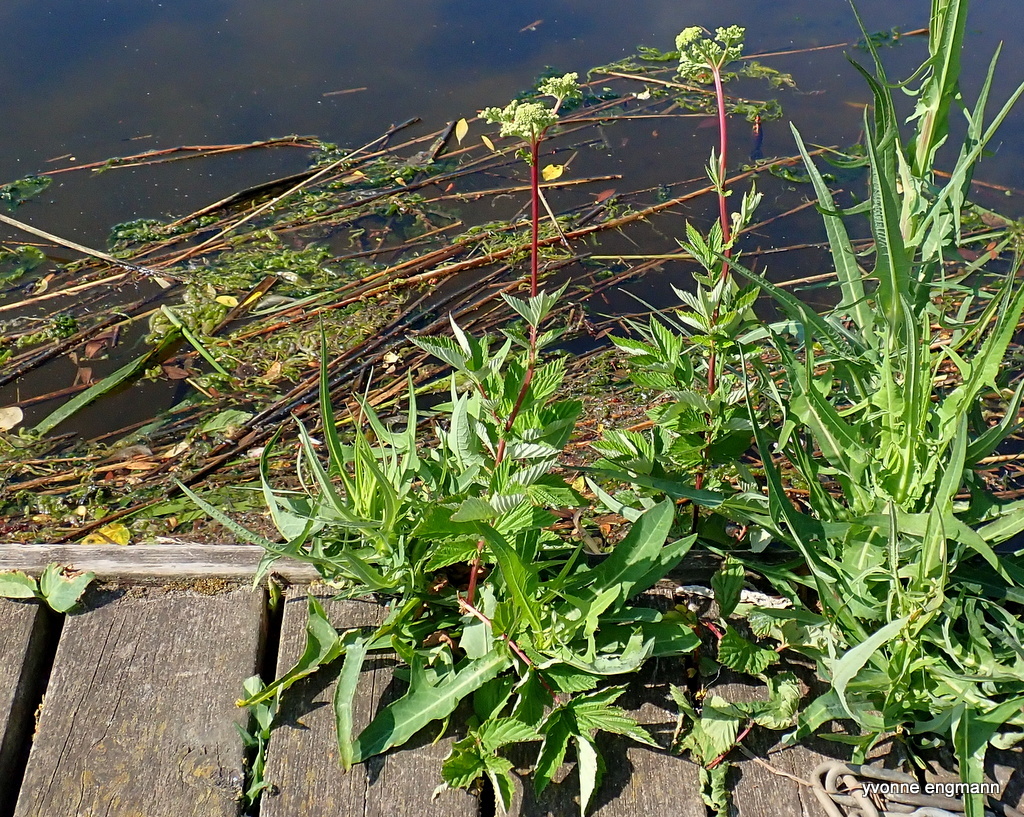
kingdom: Plantae
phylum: Tracheophyta
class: Magnoliopsida
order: Rosales
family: Rosaceae
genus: Filipendula
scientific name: Filipendula ulmaria
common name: Meadowsweet
